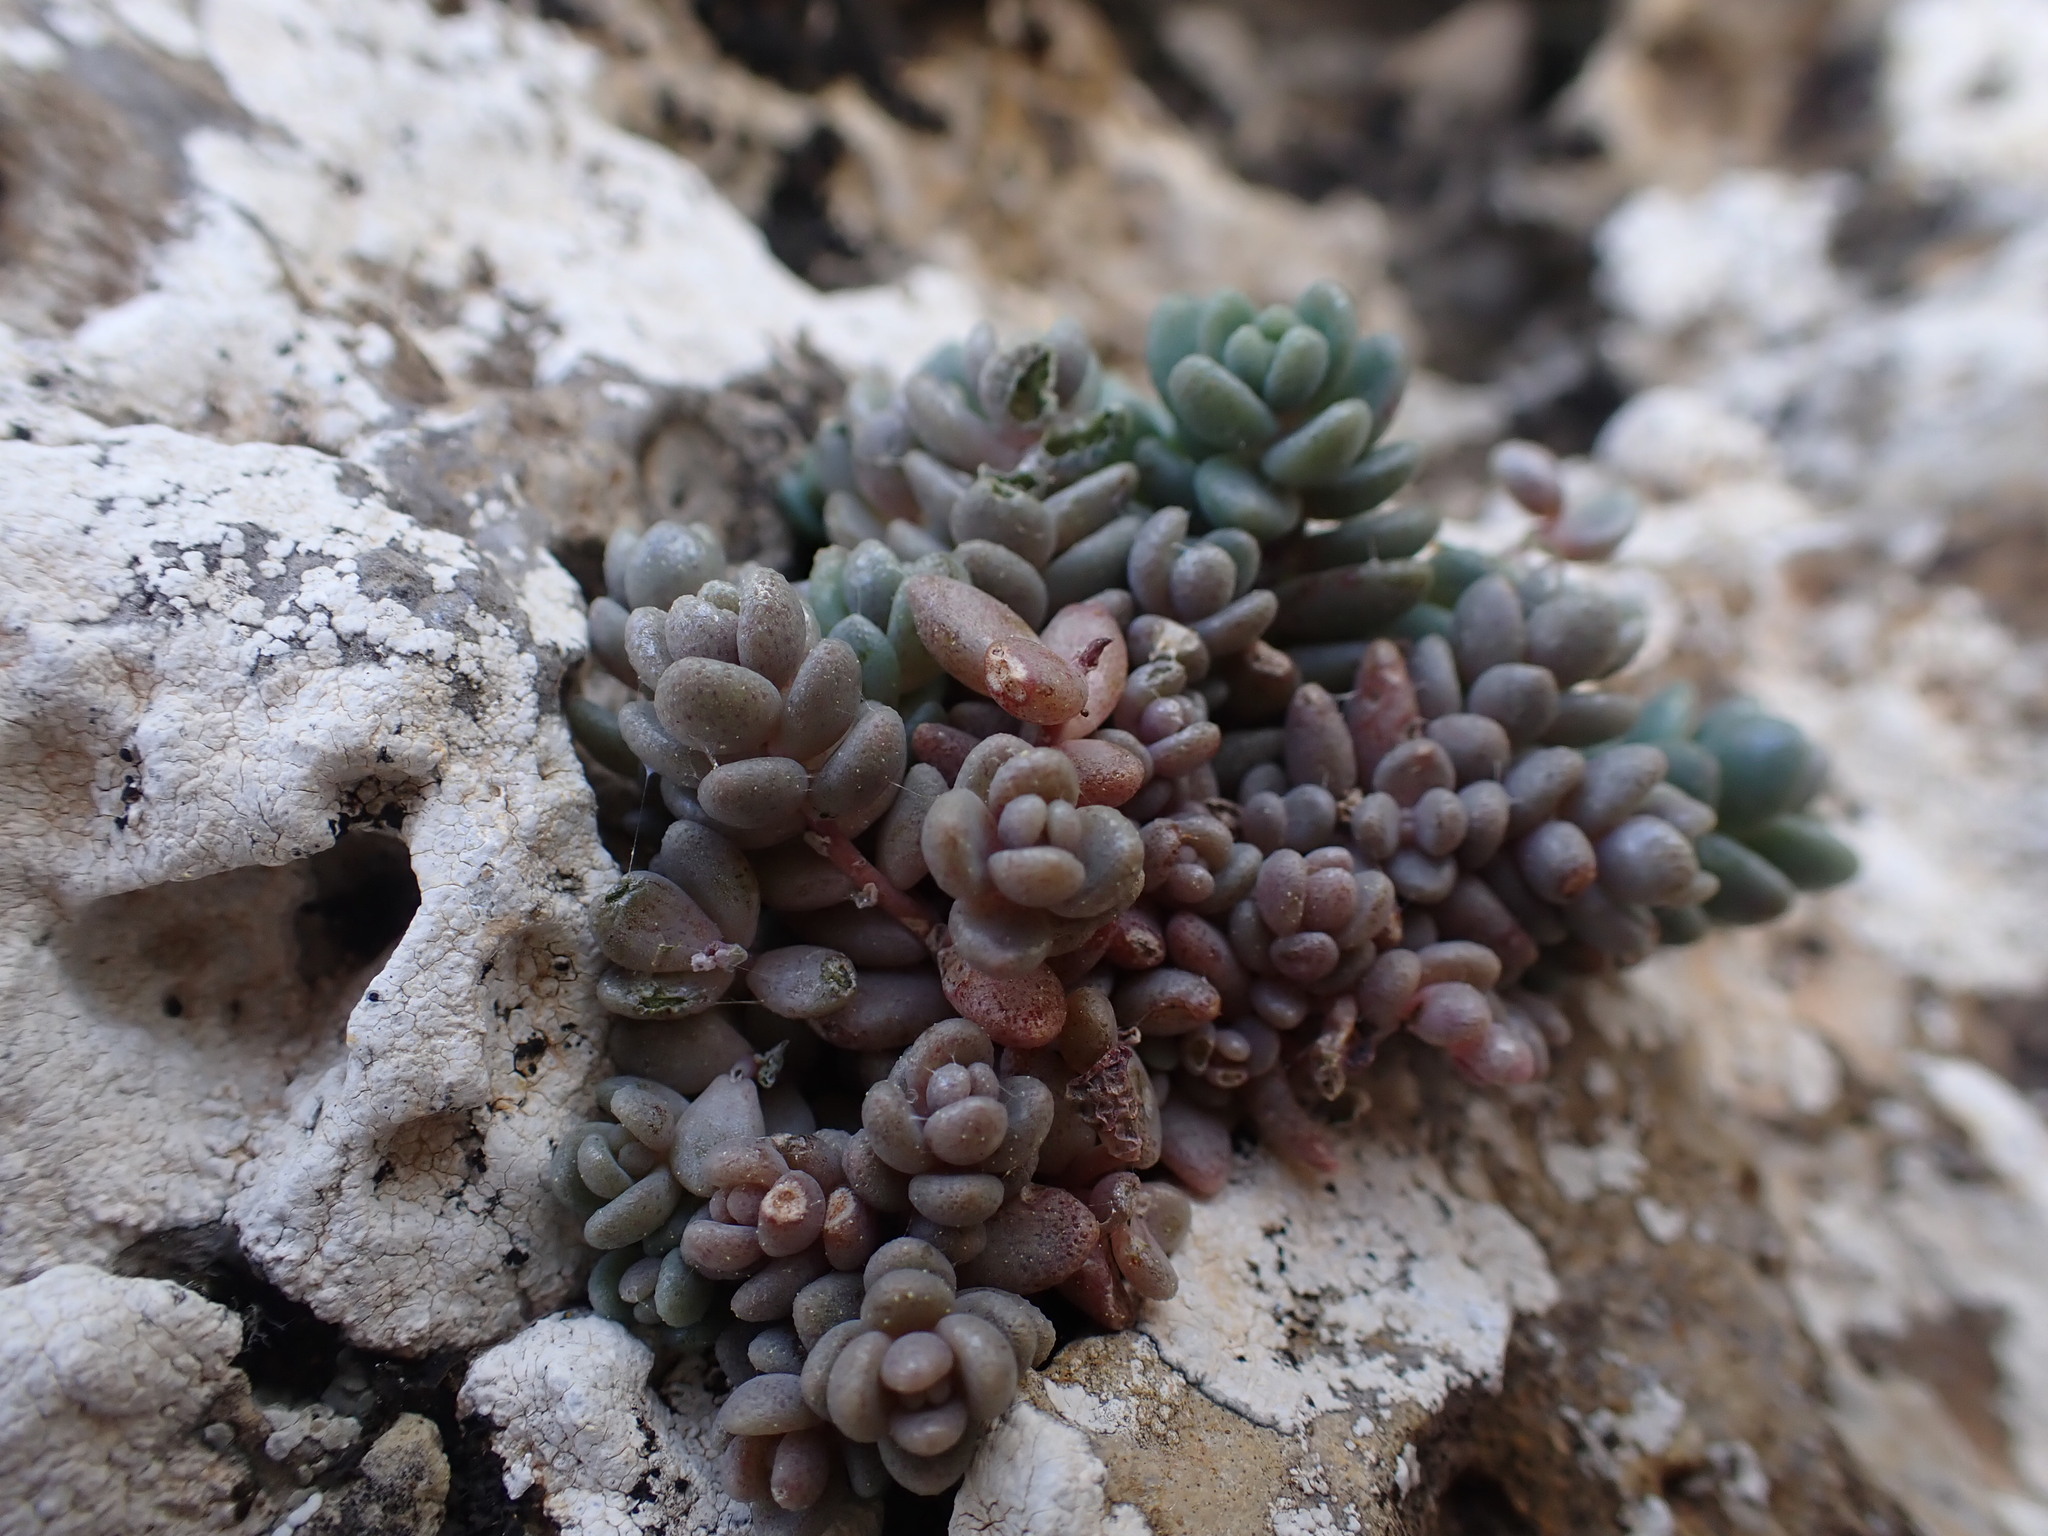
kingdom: Plantae
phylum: Tracheophyta
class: Magnoliopsida
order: Saxifragales
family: Crassulaceae
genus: Sedum
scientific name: Sedum dasyphyllum
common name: Thick-leaf stonecrop
